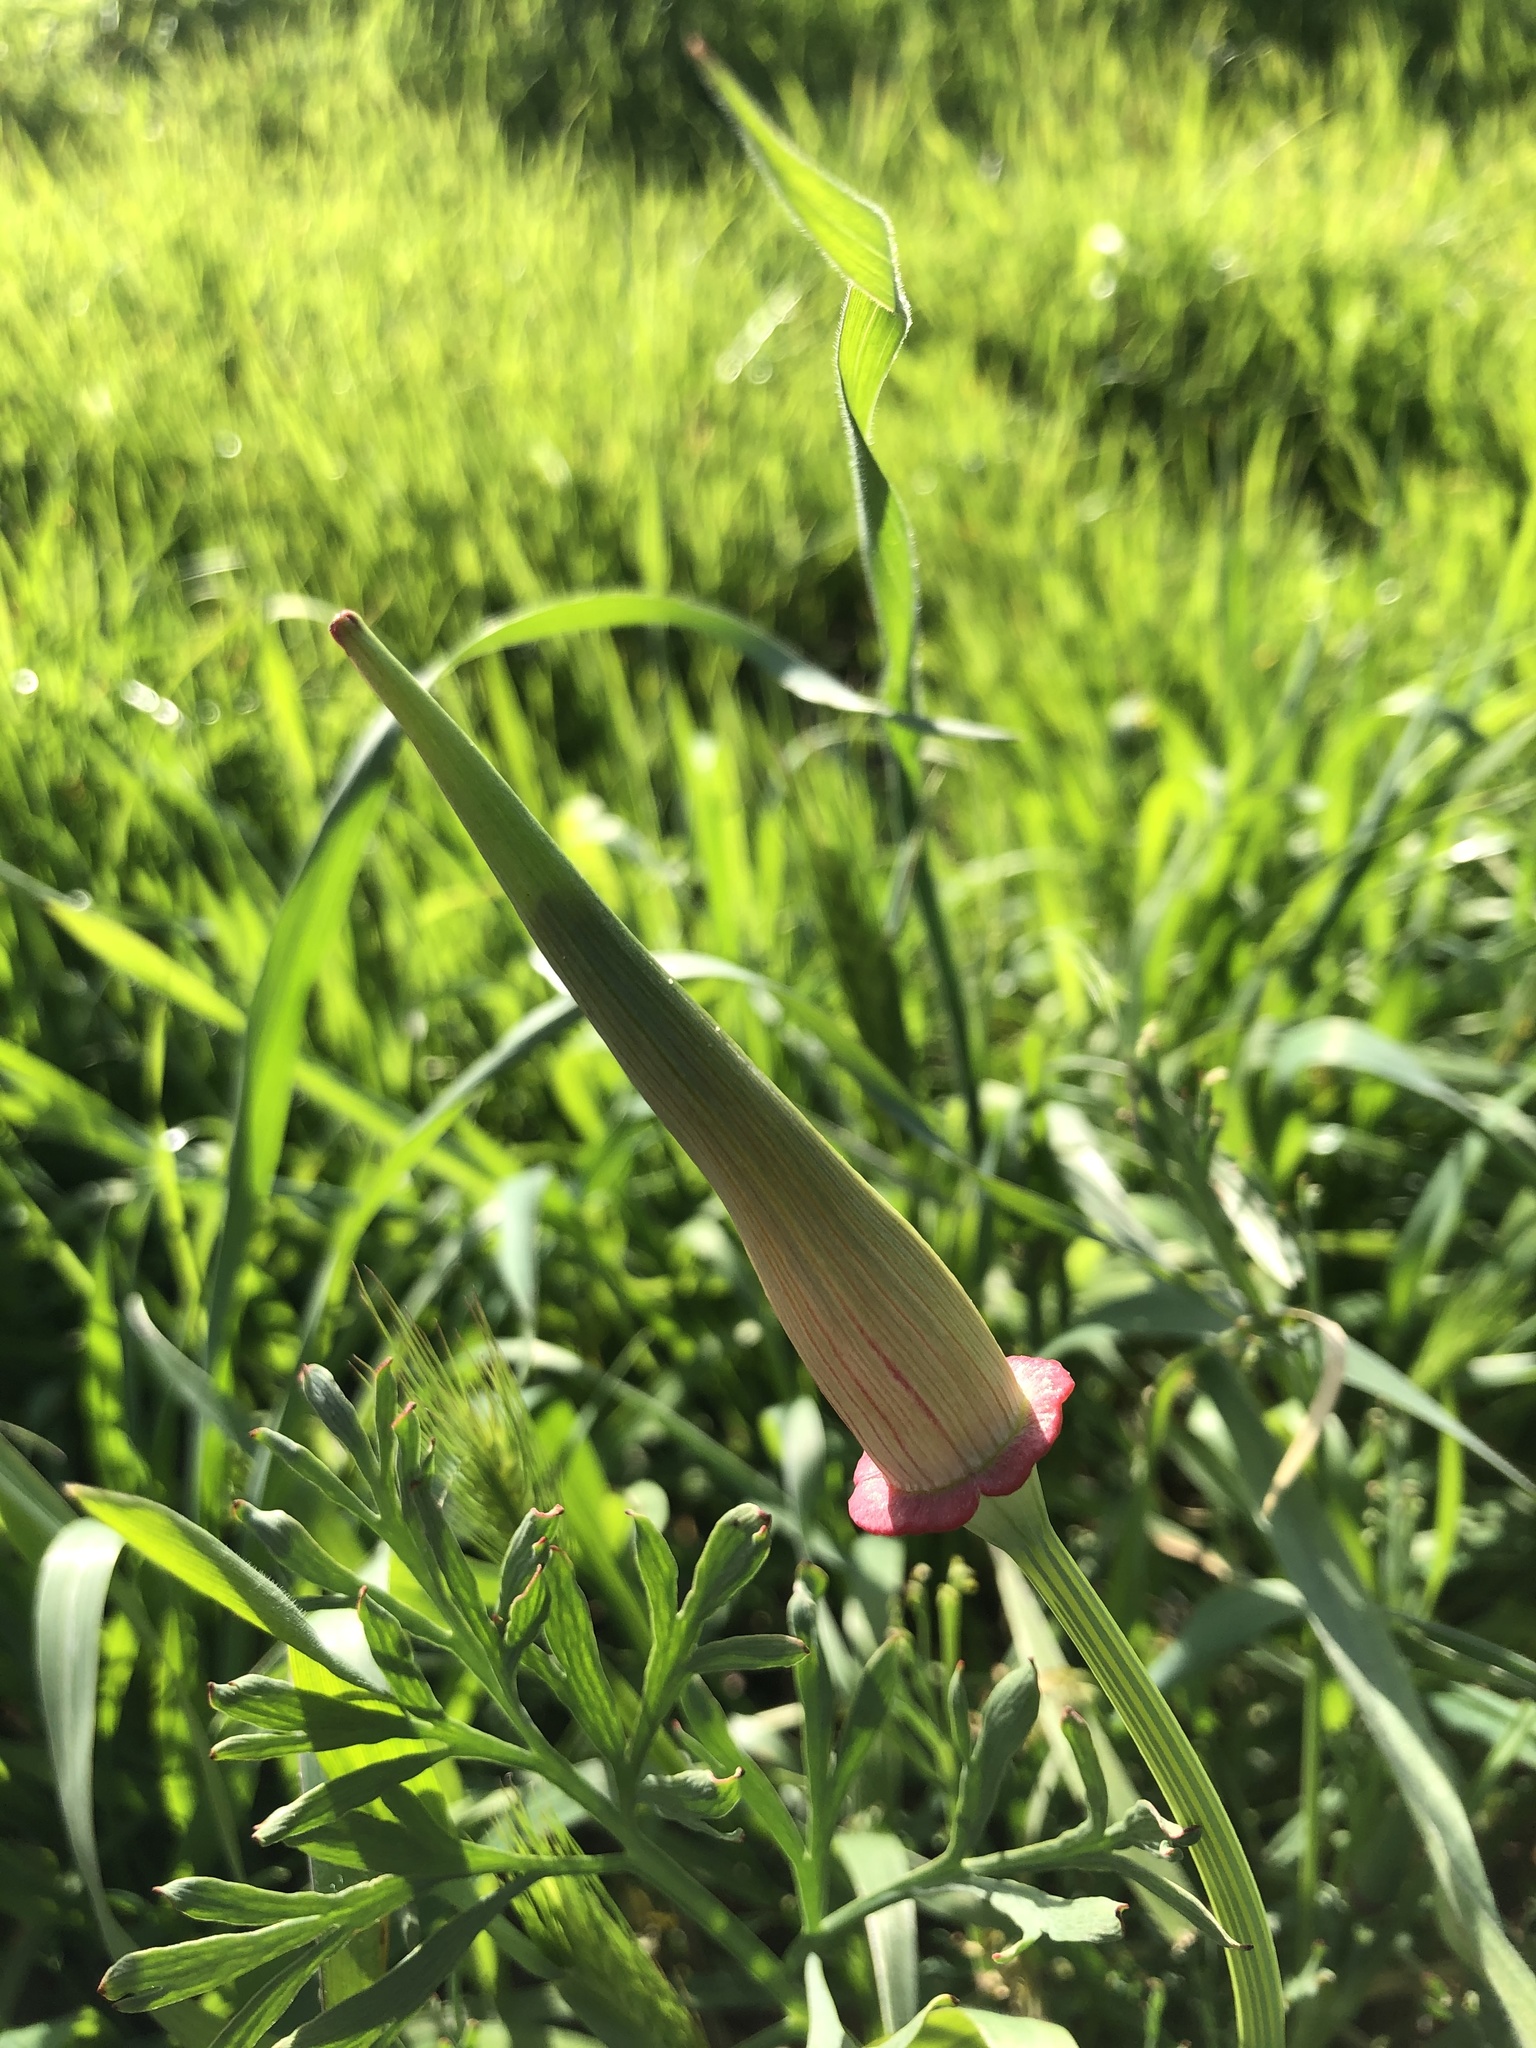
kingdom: Plantae
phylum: Tracheophyta
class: Magnoliopsida
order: Ranunculales
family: Papaveraceae
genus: Eschscholzia
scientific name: Eschscholzia californica
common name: California poppy
